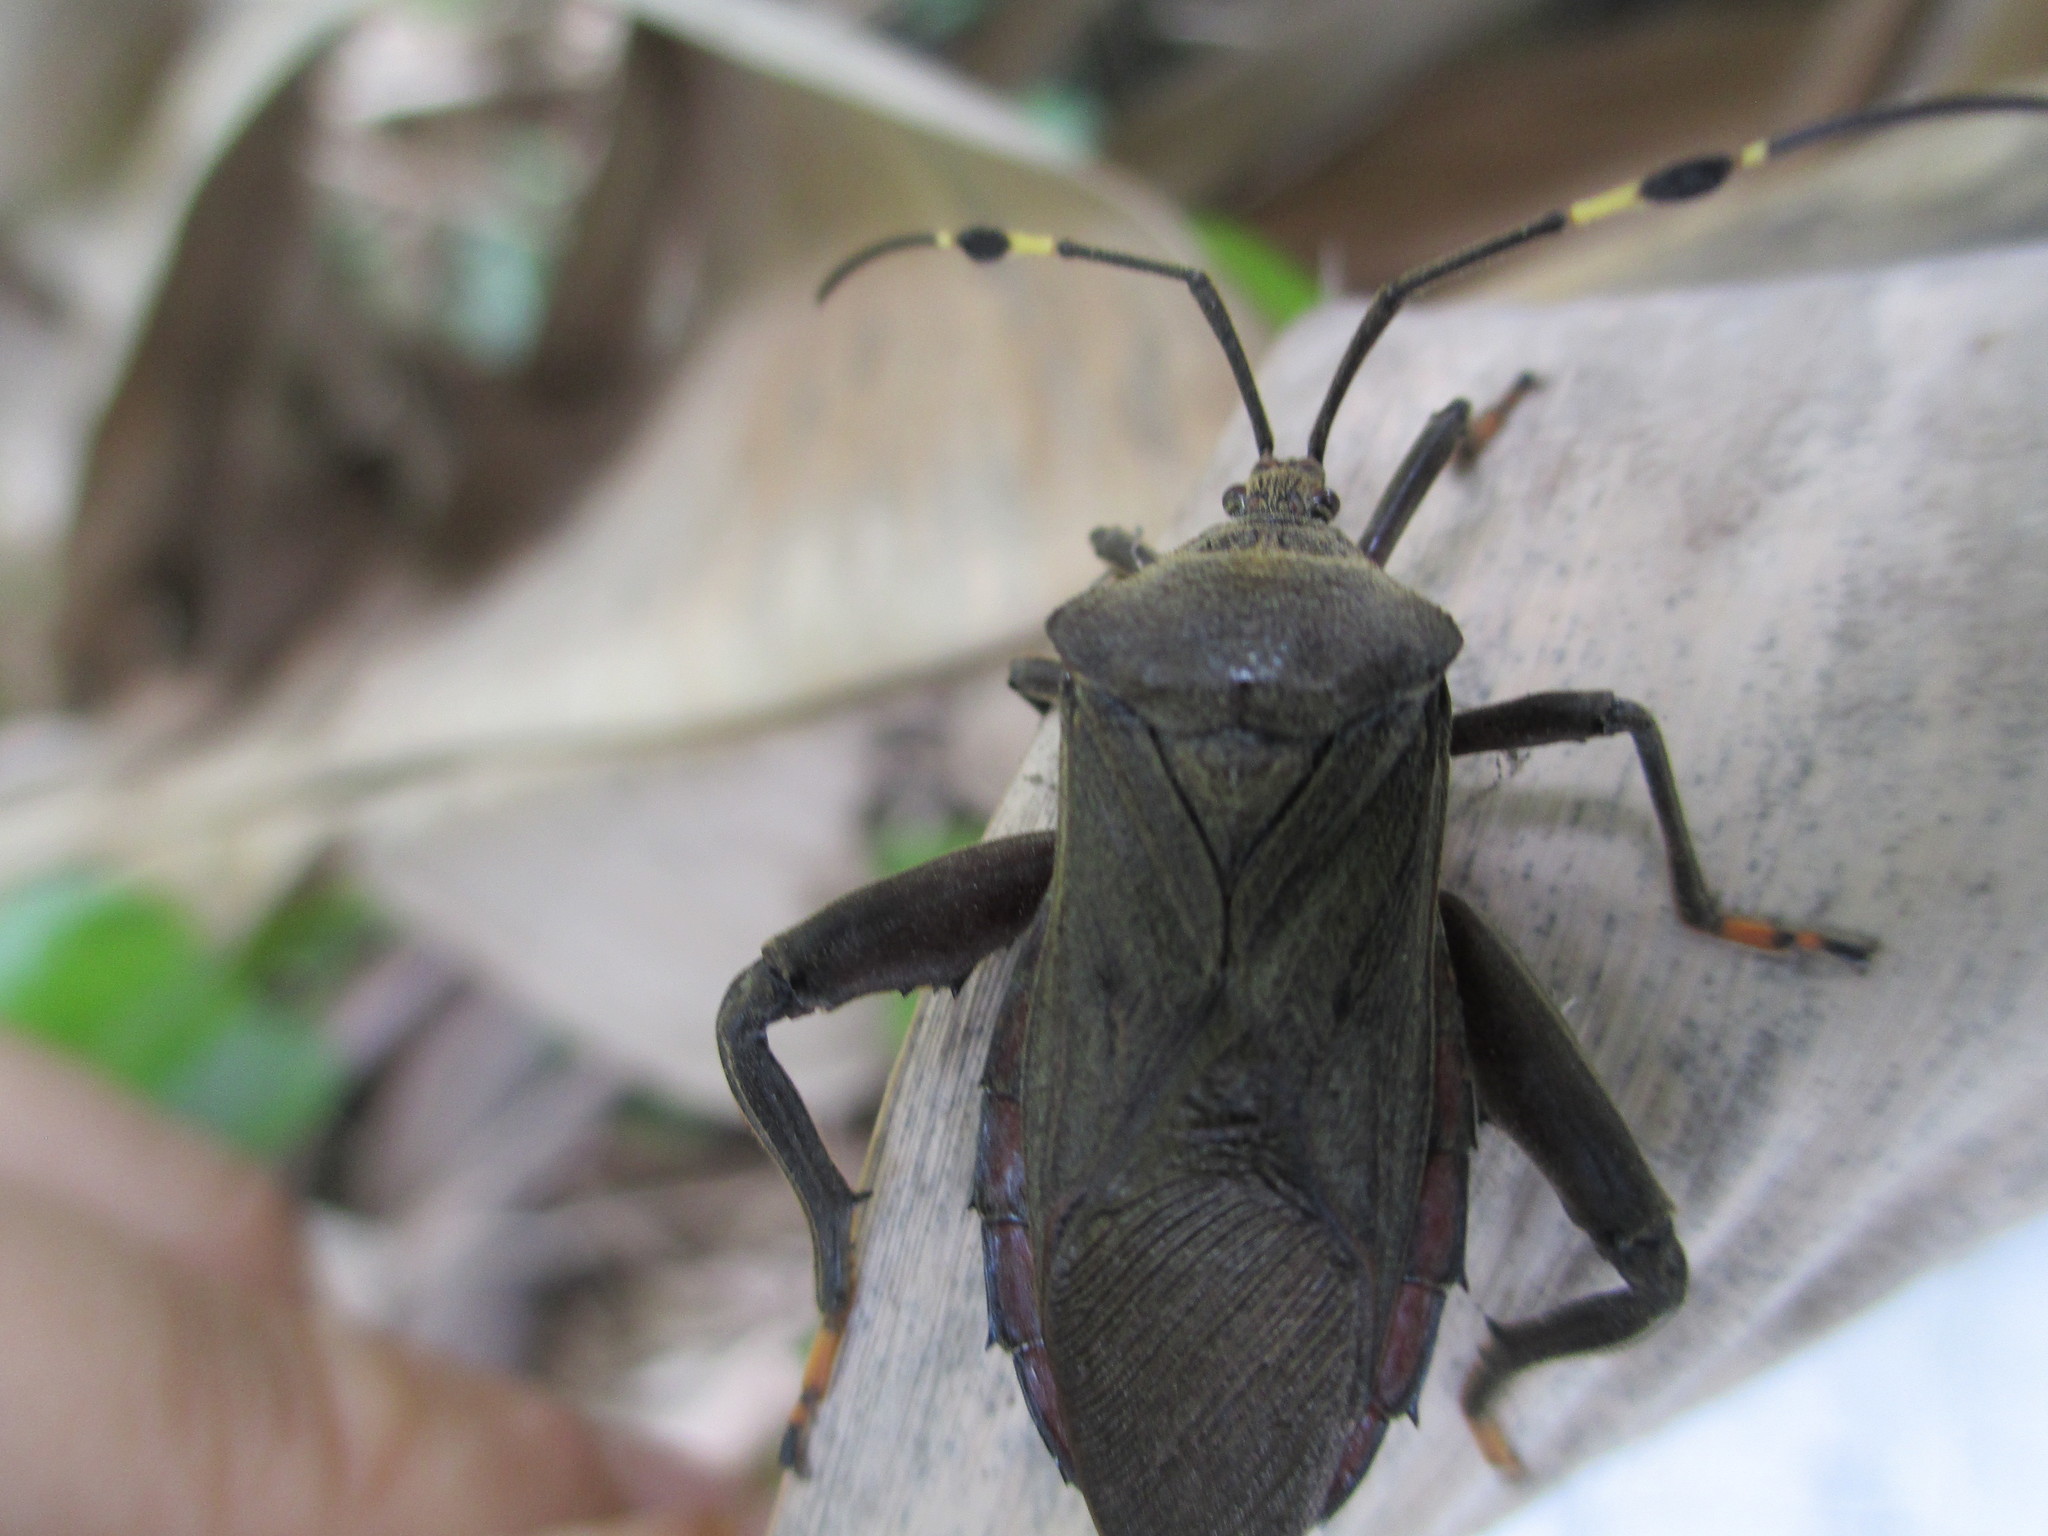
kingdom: Animalia
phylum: Arthropoda
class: Insecta
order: Hemiptera
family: Coreidae
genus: Pachylis
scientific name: Pachylis laticornis
